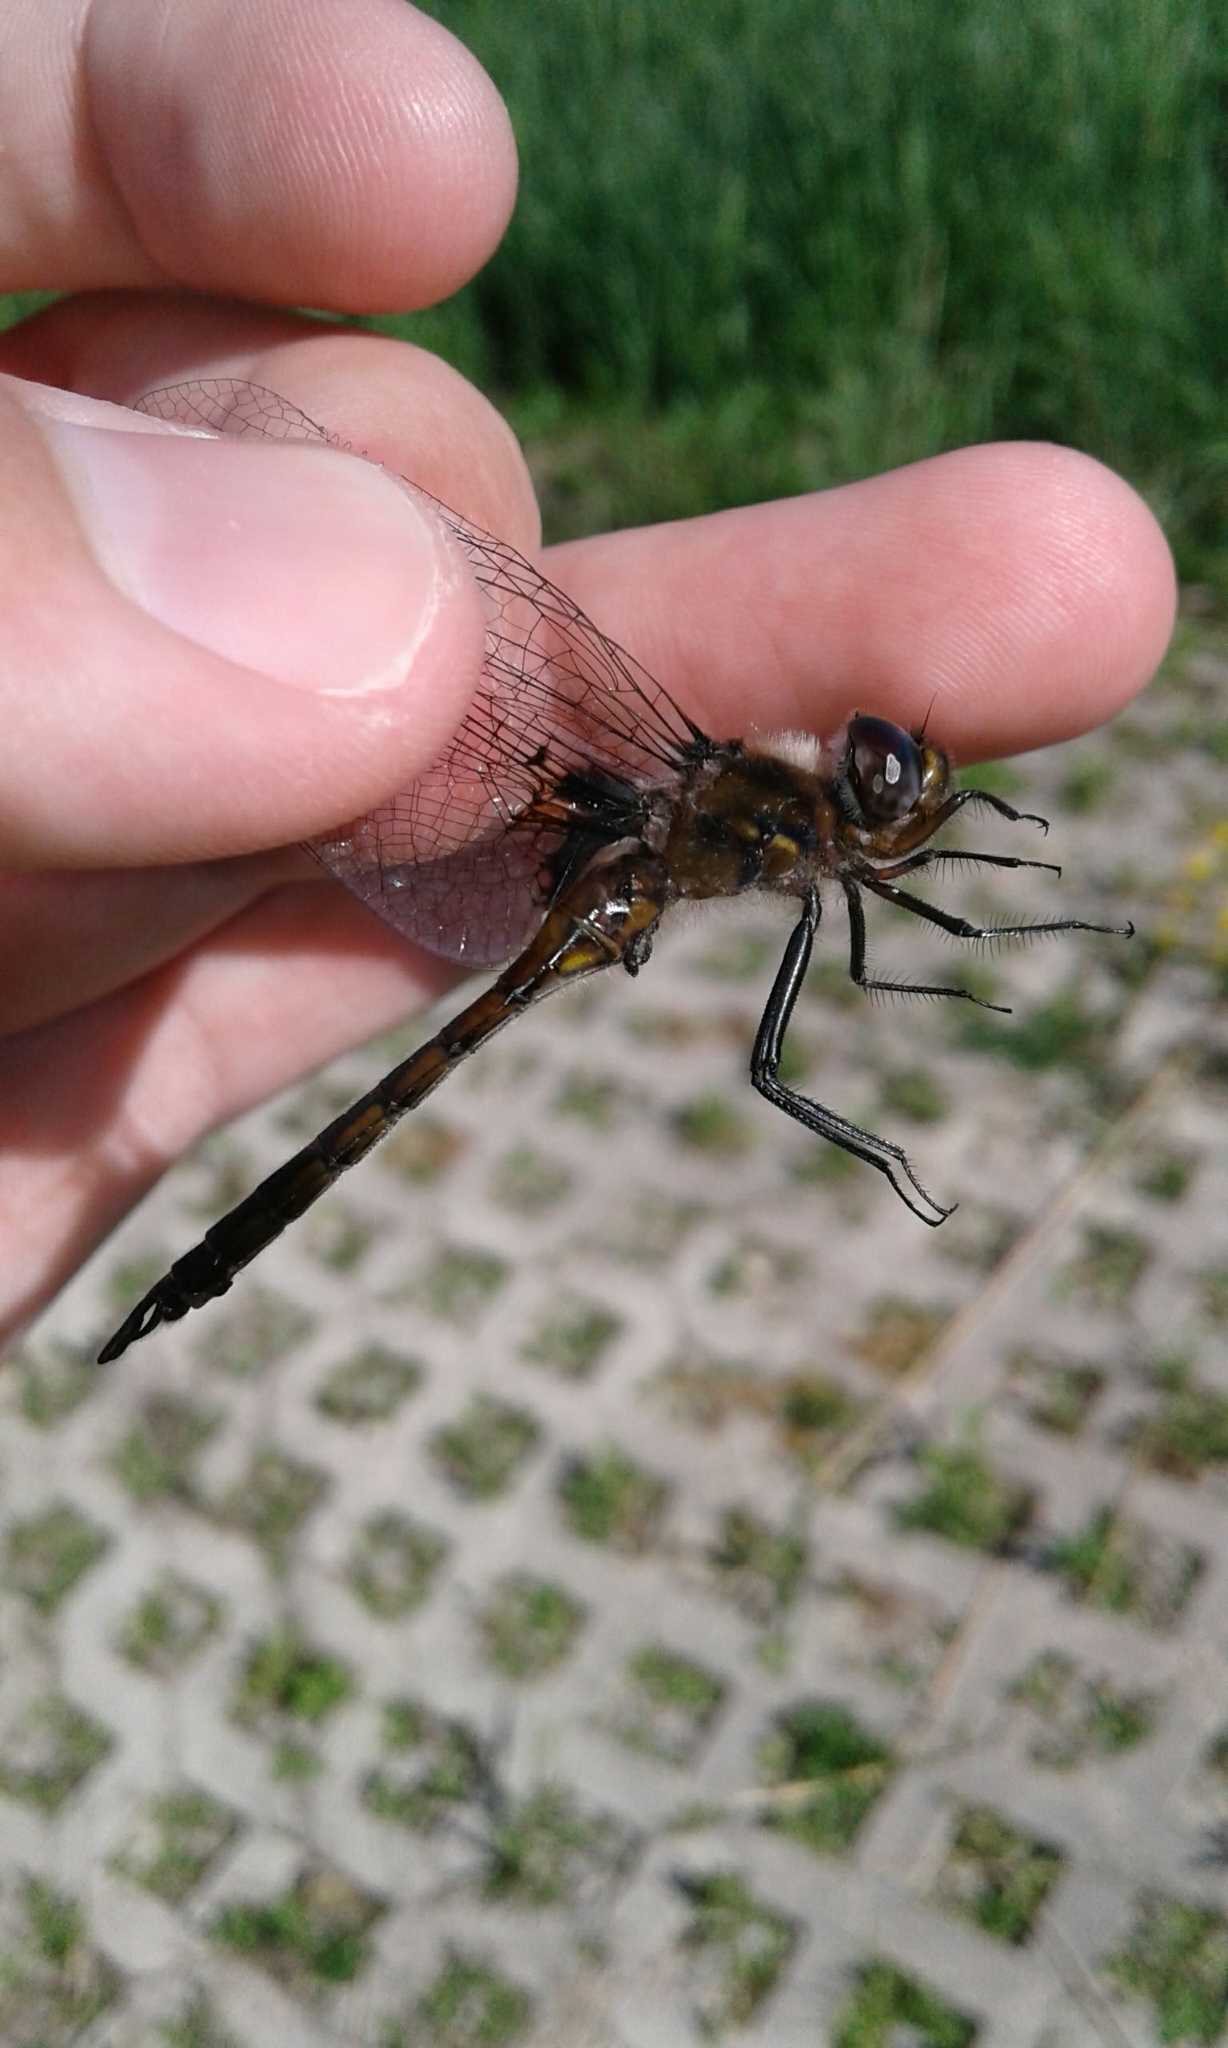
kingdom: Animalia
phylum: Arthropoda
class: Insecta
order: Odonata
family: Corduliidae
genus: Epitheca
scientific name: Epitheca cynosura
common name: Common baskettail
